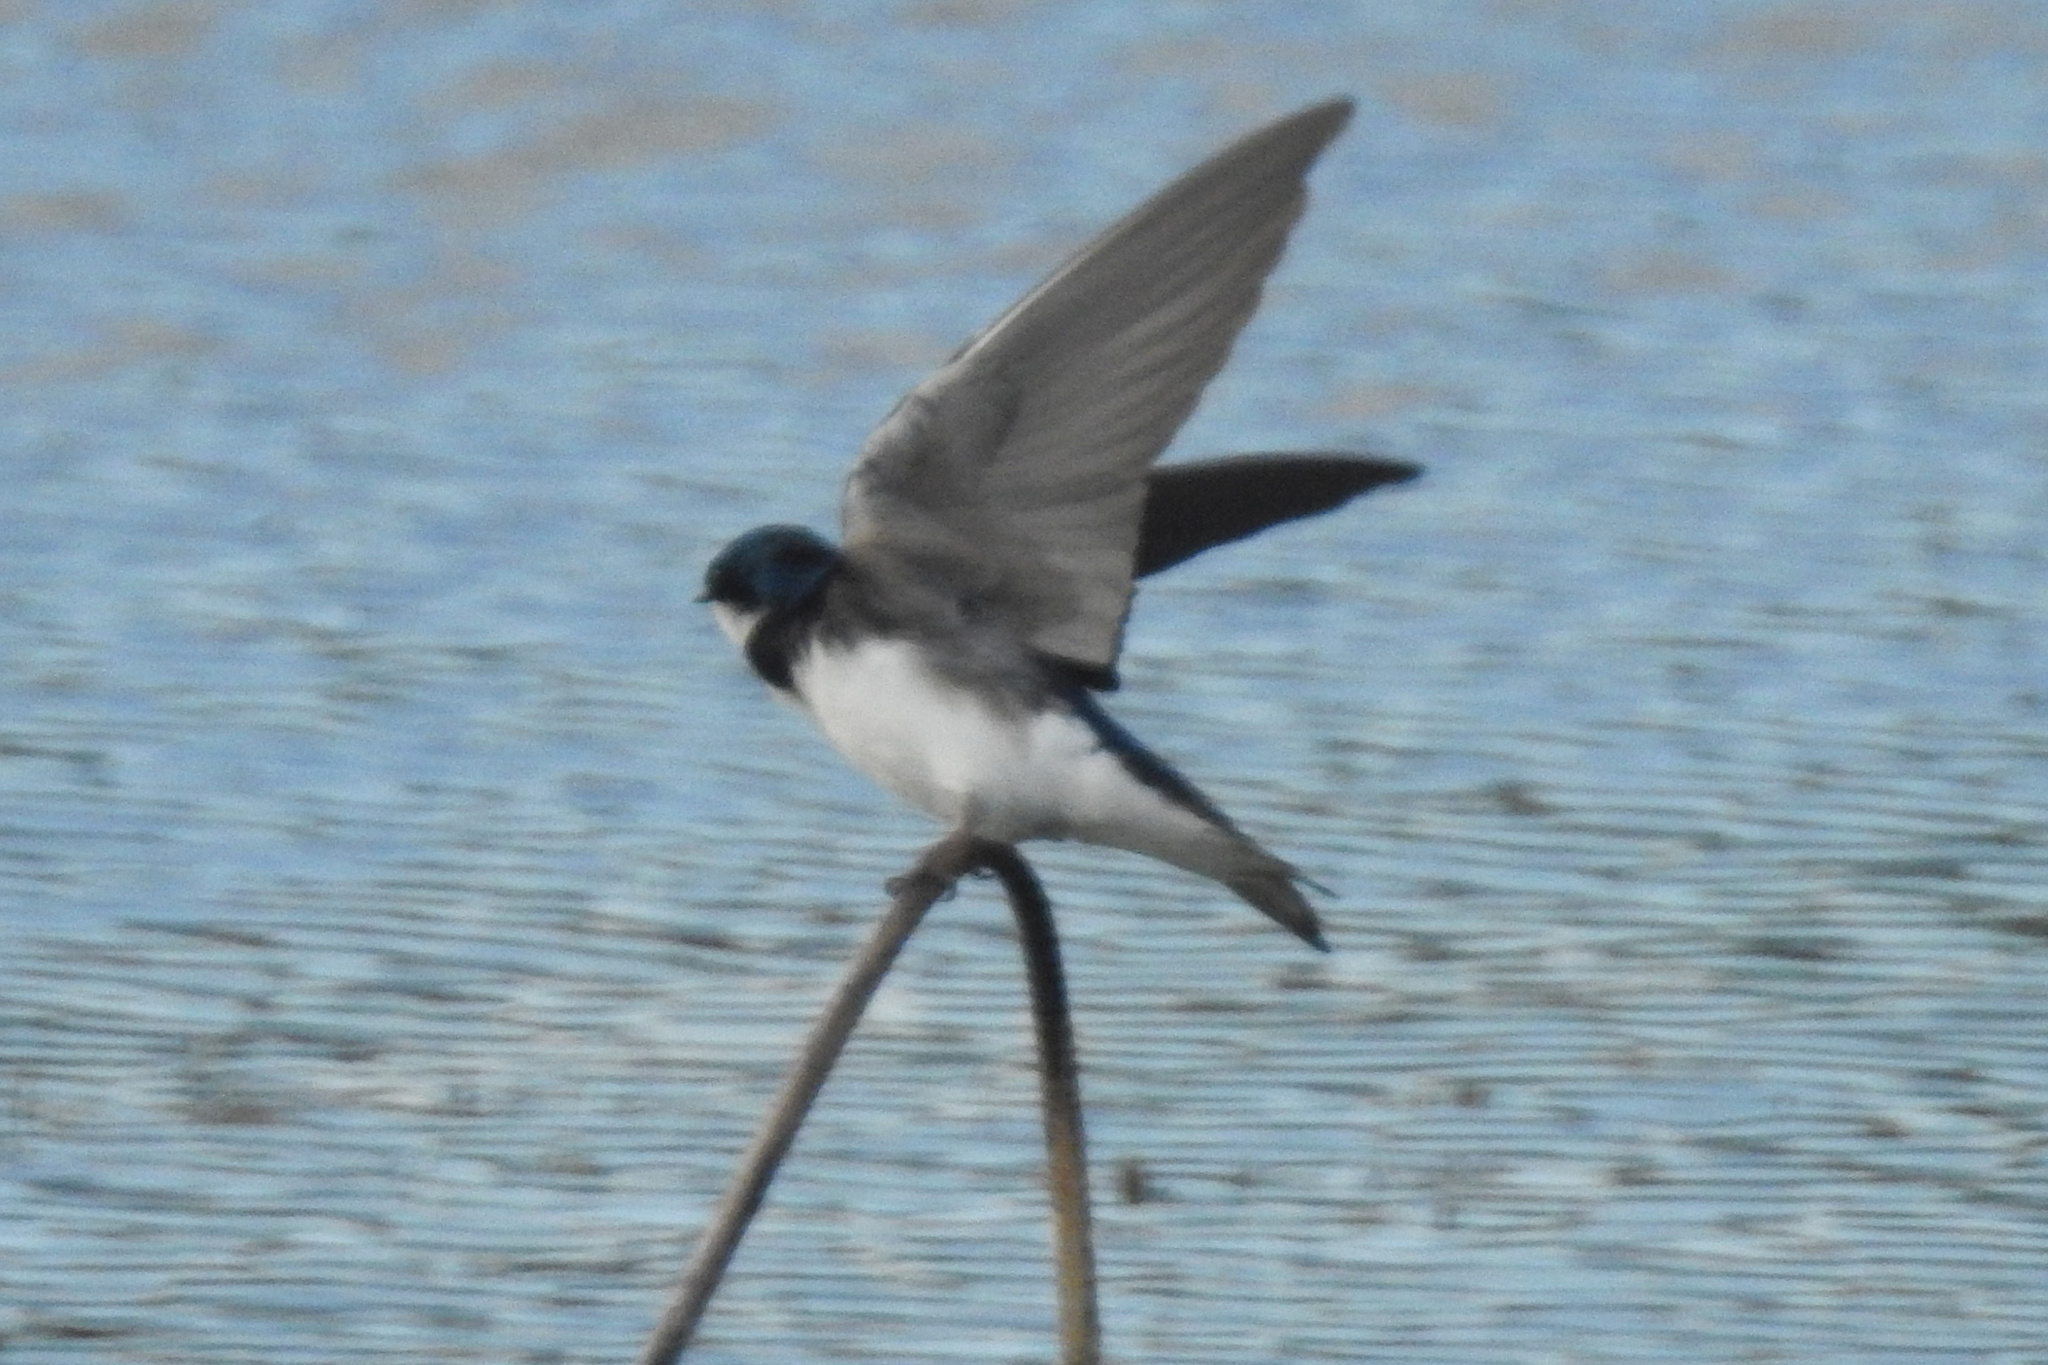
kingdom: Animalia
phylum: Chordata
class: Aves
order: Passeriformes
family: Hirundinidae
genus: Tachycineta
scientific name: Tachycineta bicolor
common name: Tree swallow
